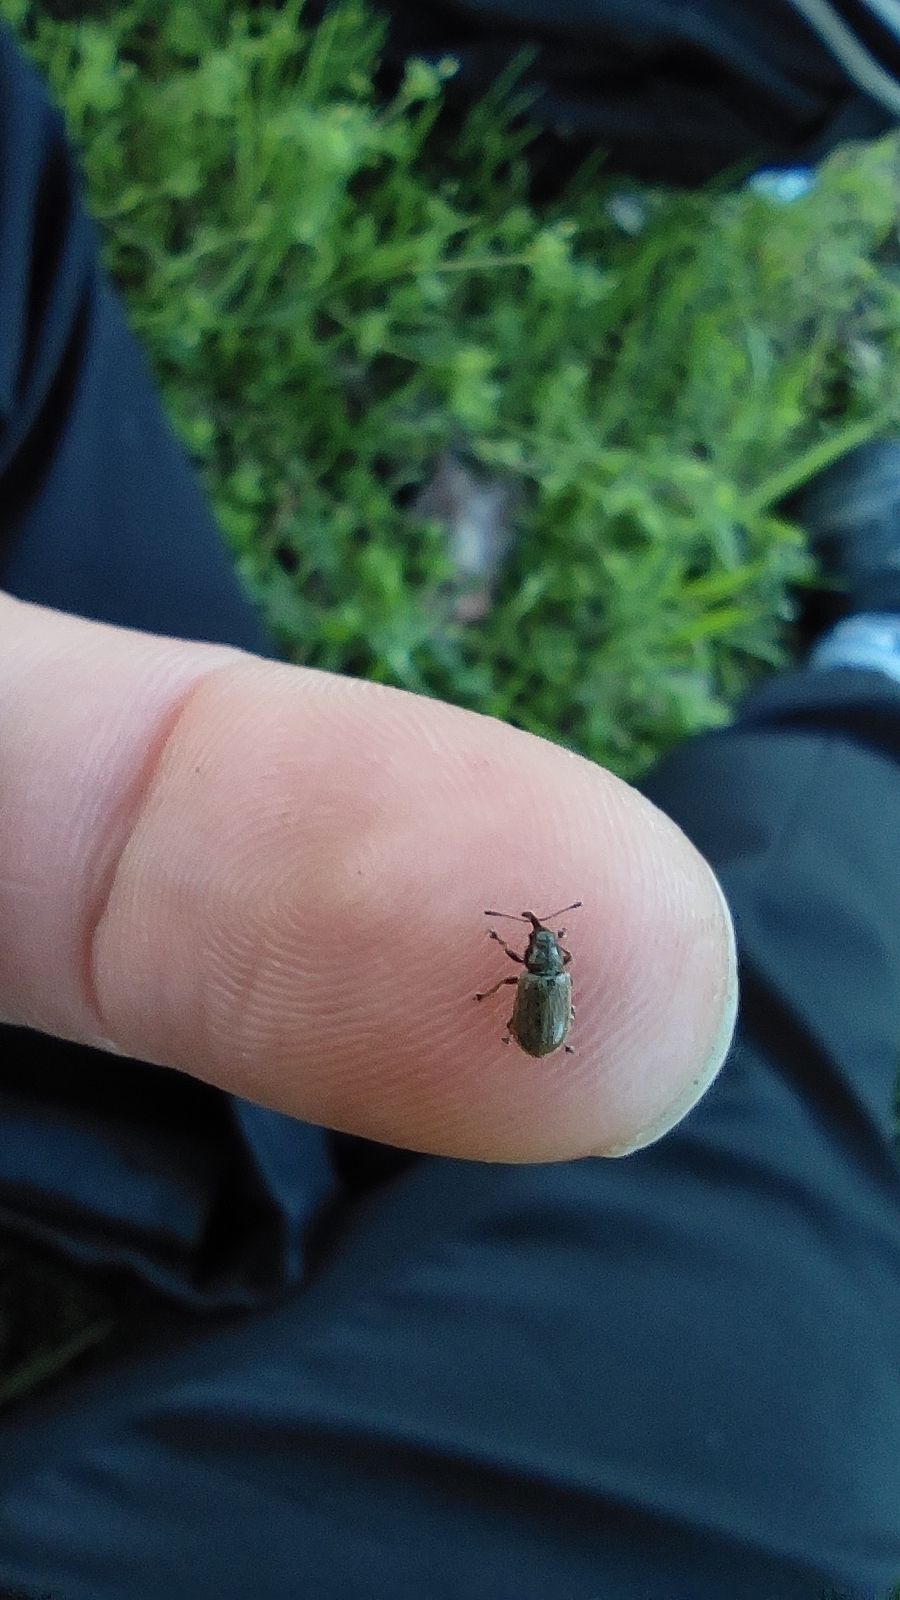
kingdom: Animalia
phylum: Arthropoda
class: Insecta
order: Coleoptera
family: Nemonychidae
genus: Doydirhynchus
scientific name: Doydirhynchus austriacus
